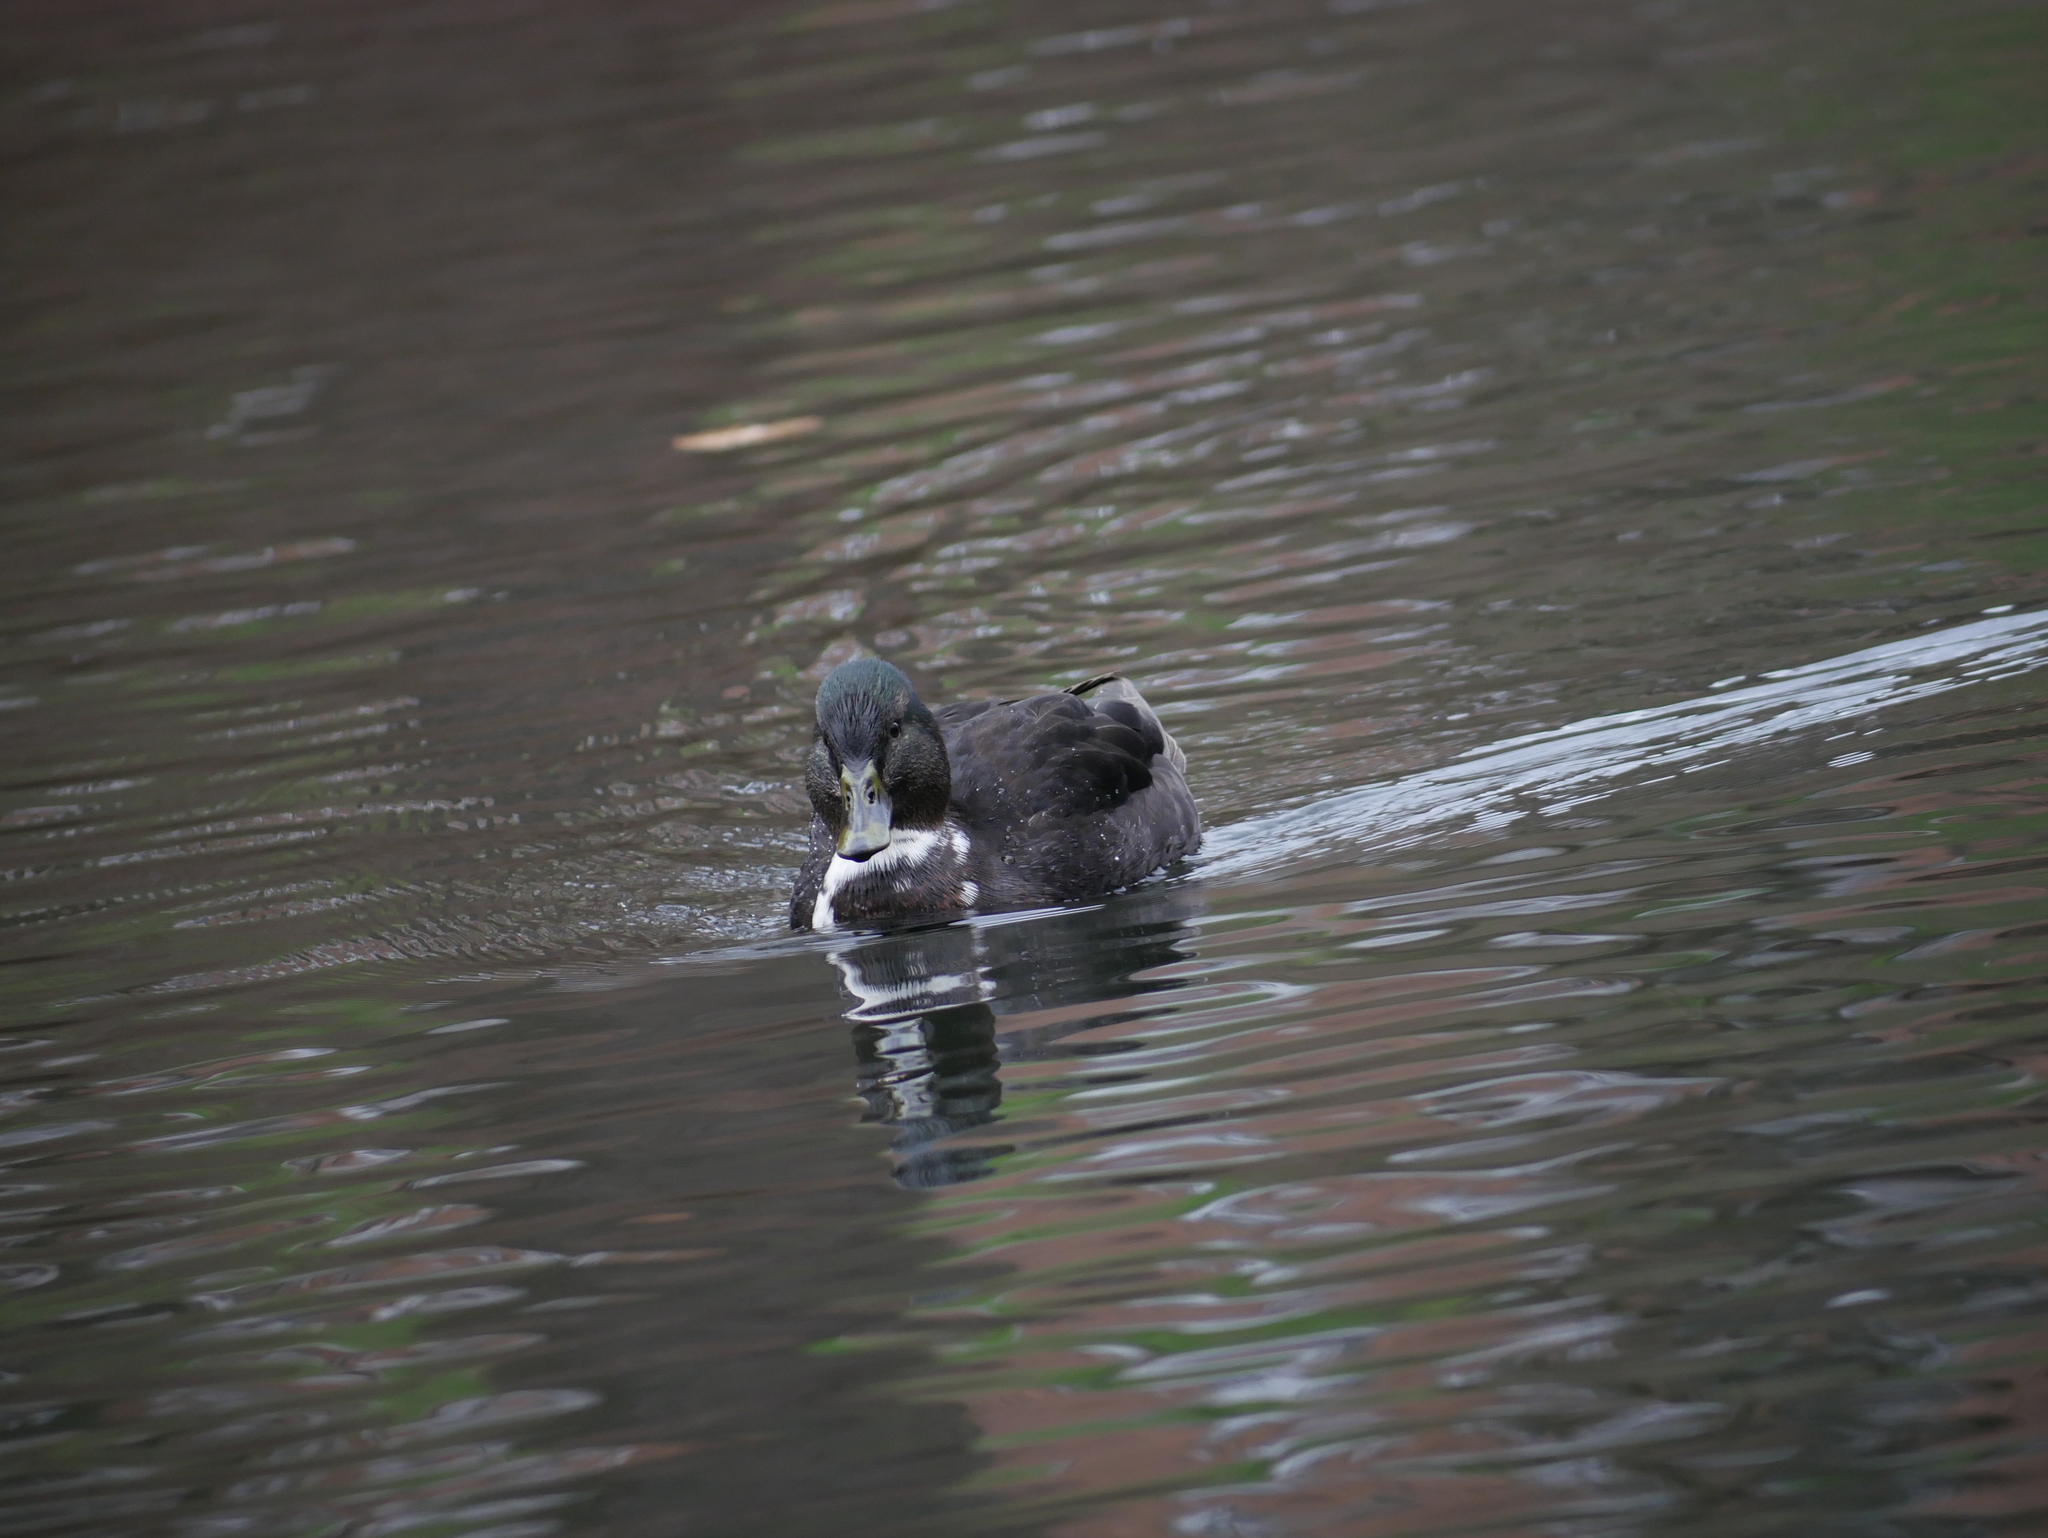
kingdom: Animalia
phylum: Chordata
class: Aves
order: Anseriformes
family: Anatidae
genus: Anas
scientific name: Anas platyrhynchos
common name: Mallard
